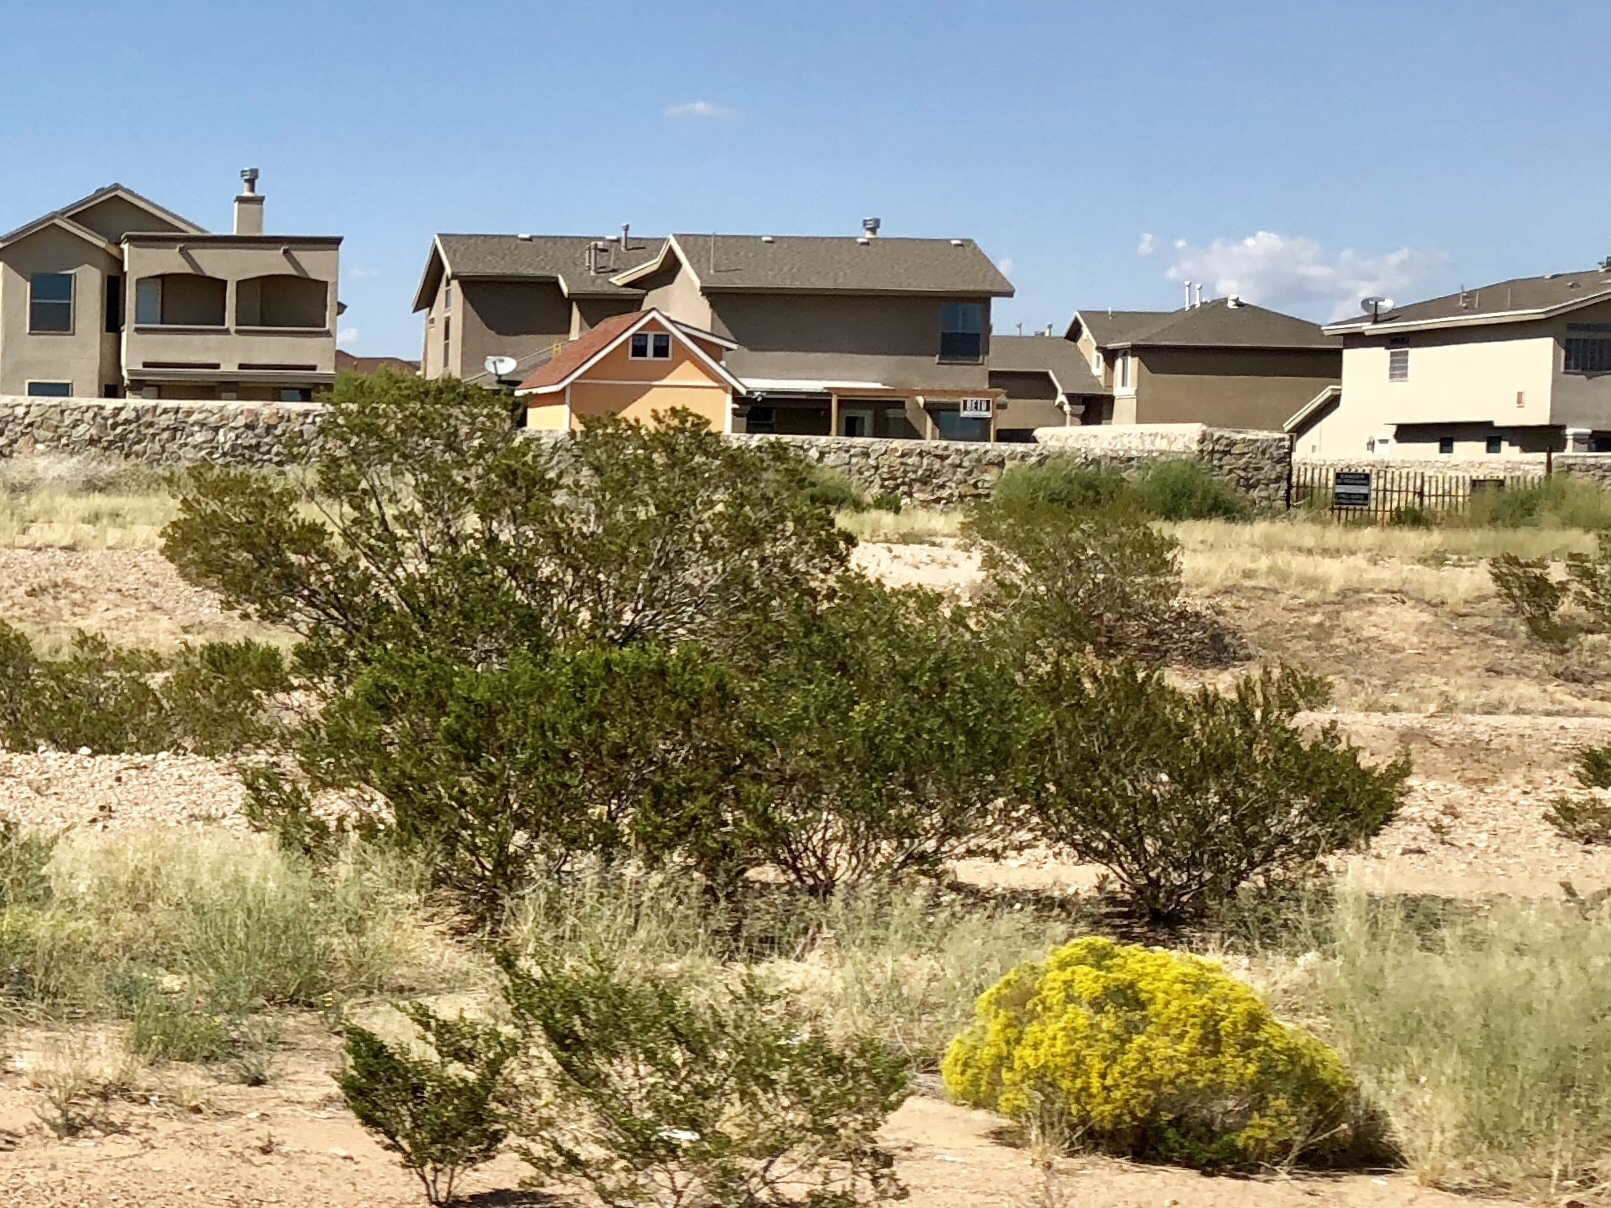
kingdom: Plantae
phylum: Tracheophyta
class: Magnoliopsida
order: Zygophyllales
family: Zygophyllaceae
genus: Larrea
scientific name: Larrea tridentata
